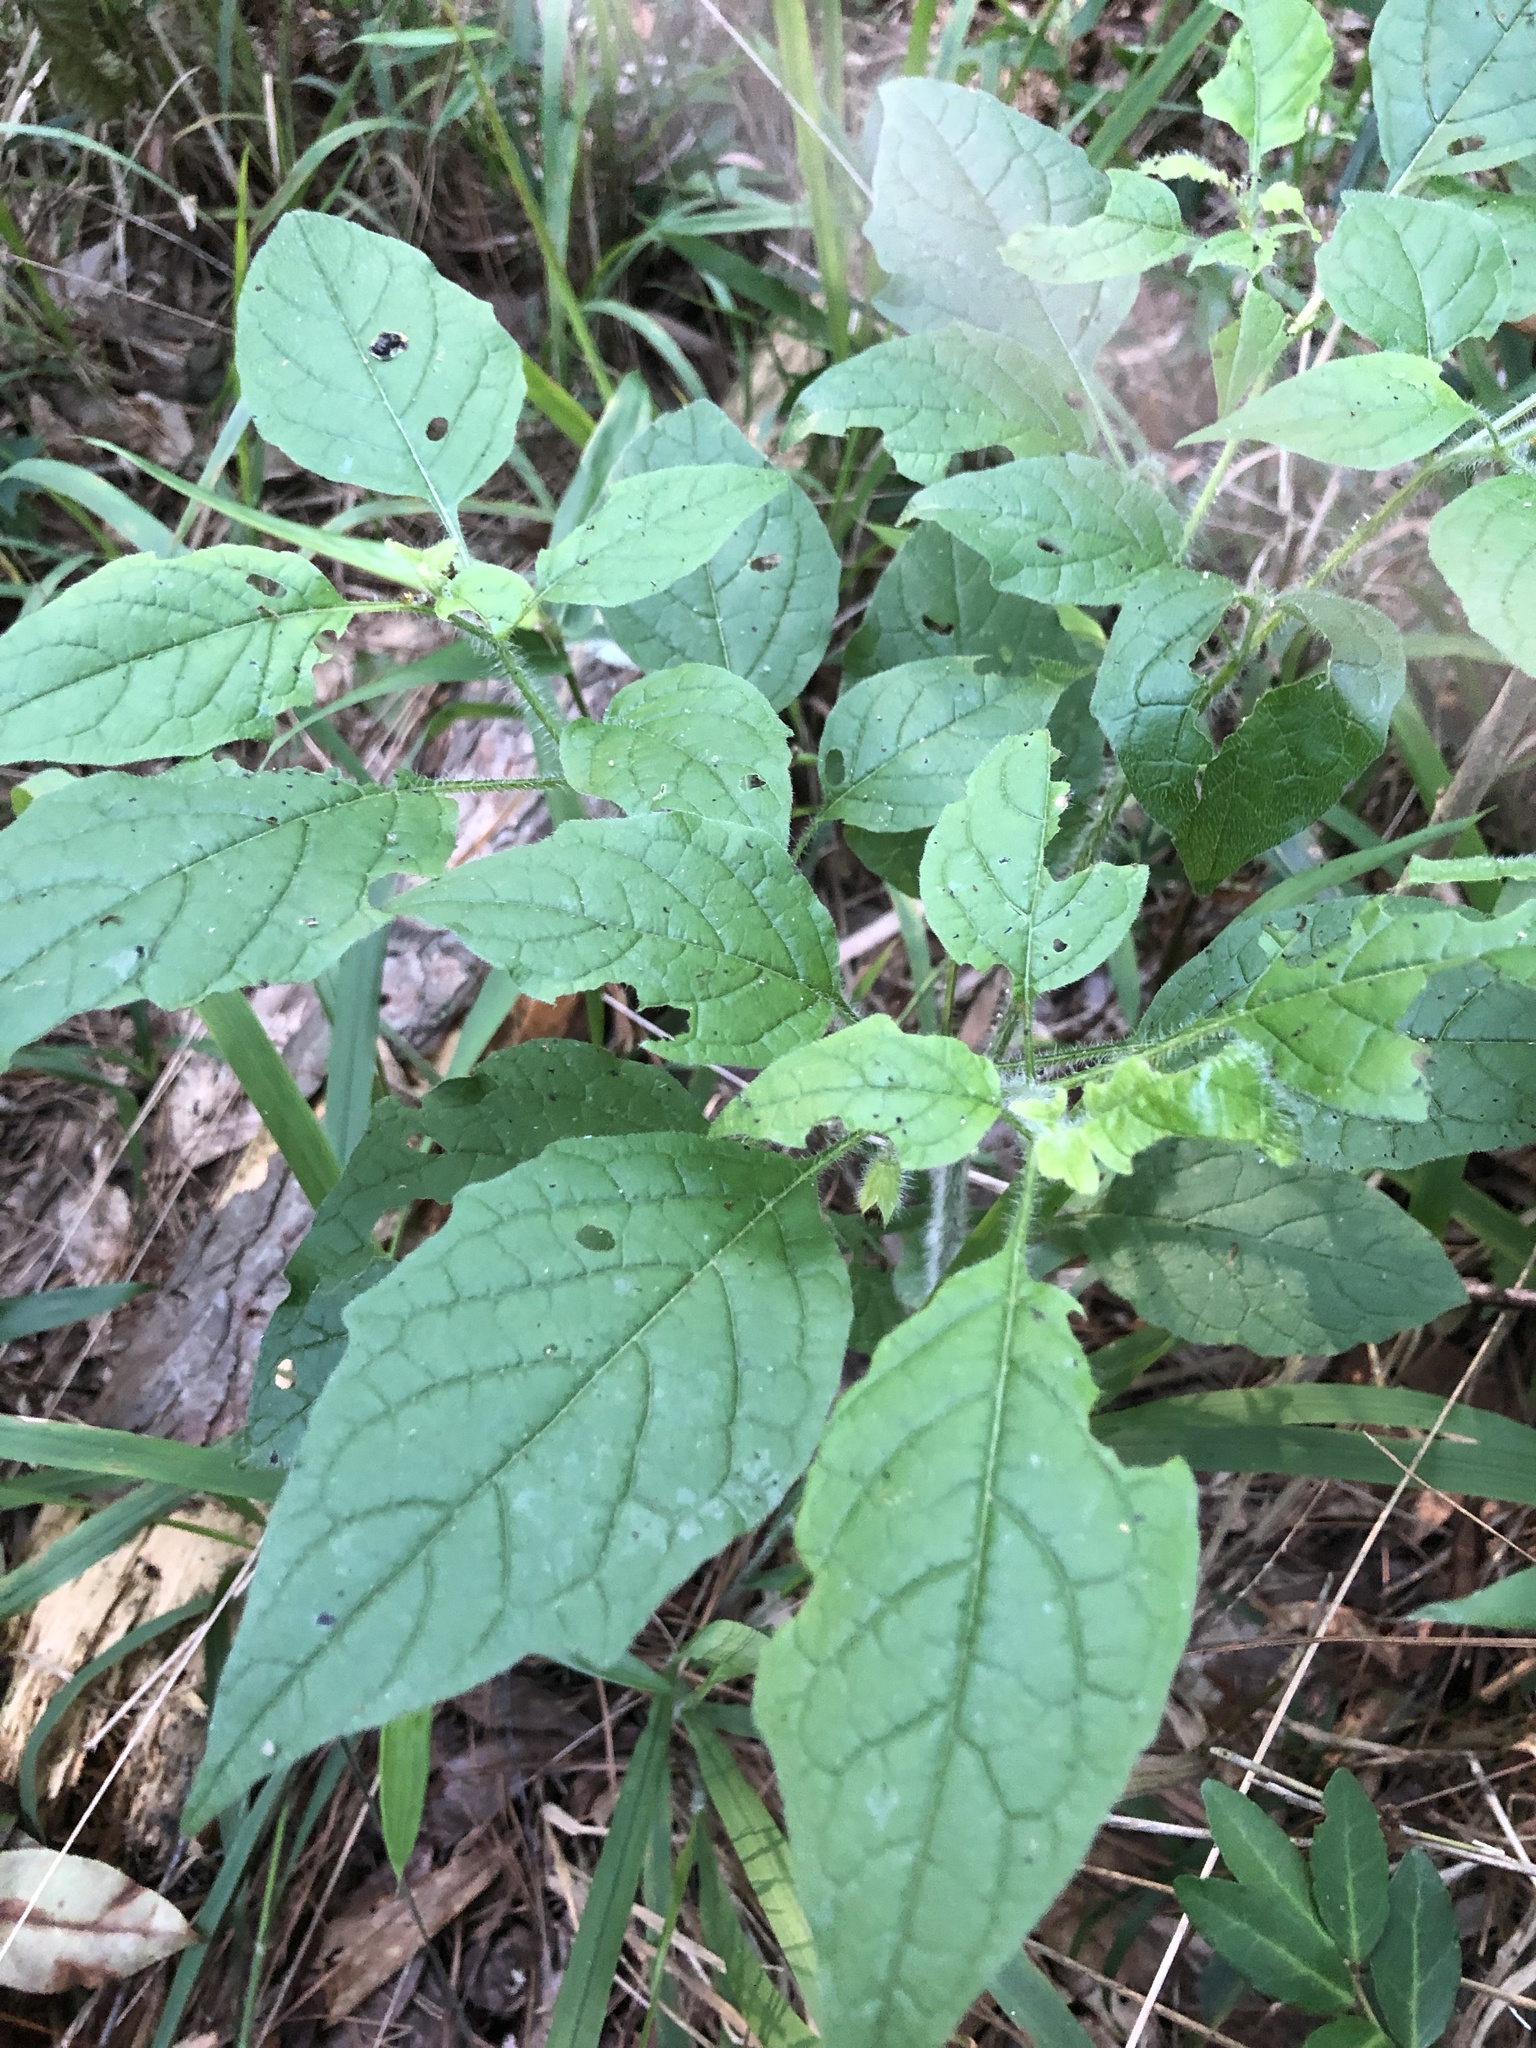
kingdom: Plantae
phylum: Tracheophyta
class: Magnoliopsida
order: Solanales
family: Solanaceae
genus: Physalis
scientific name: Physalis heterophylla
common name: Clammy ground-cherry
